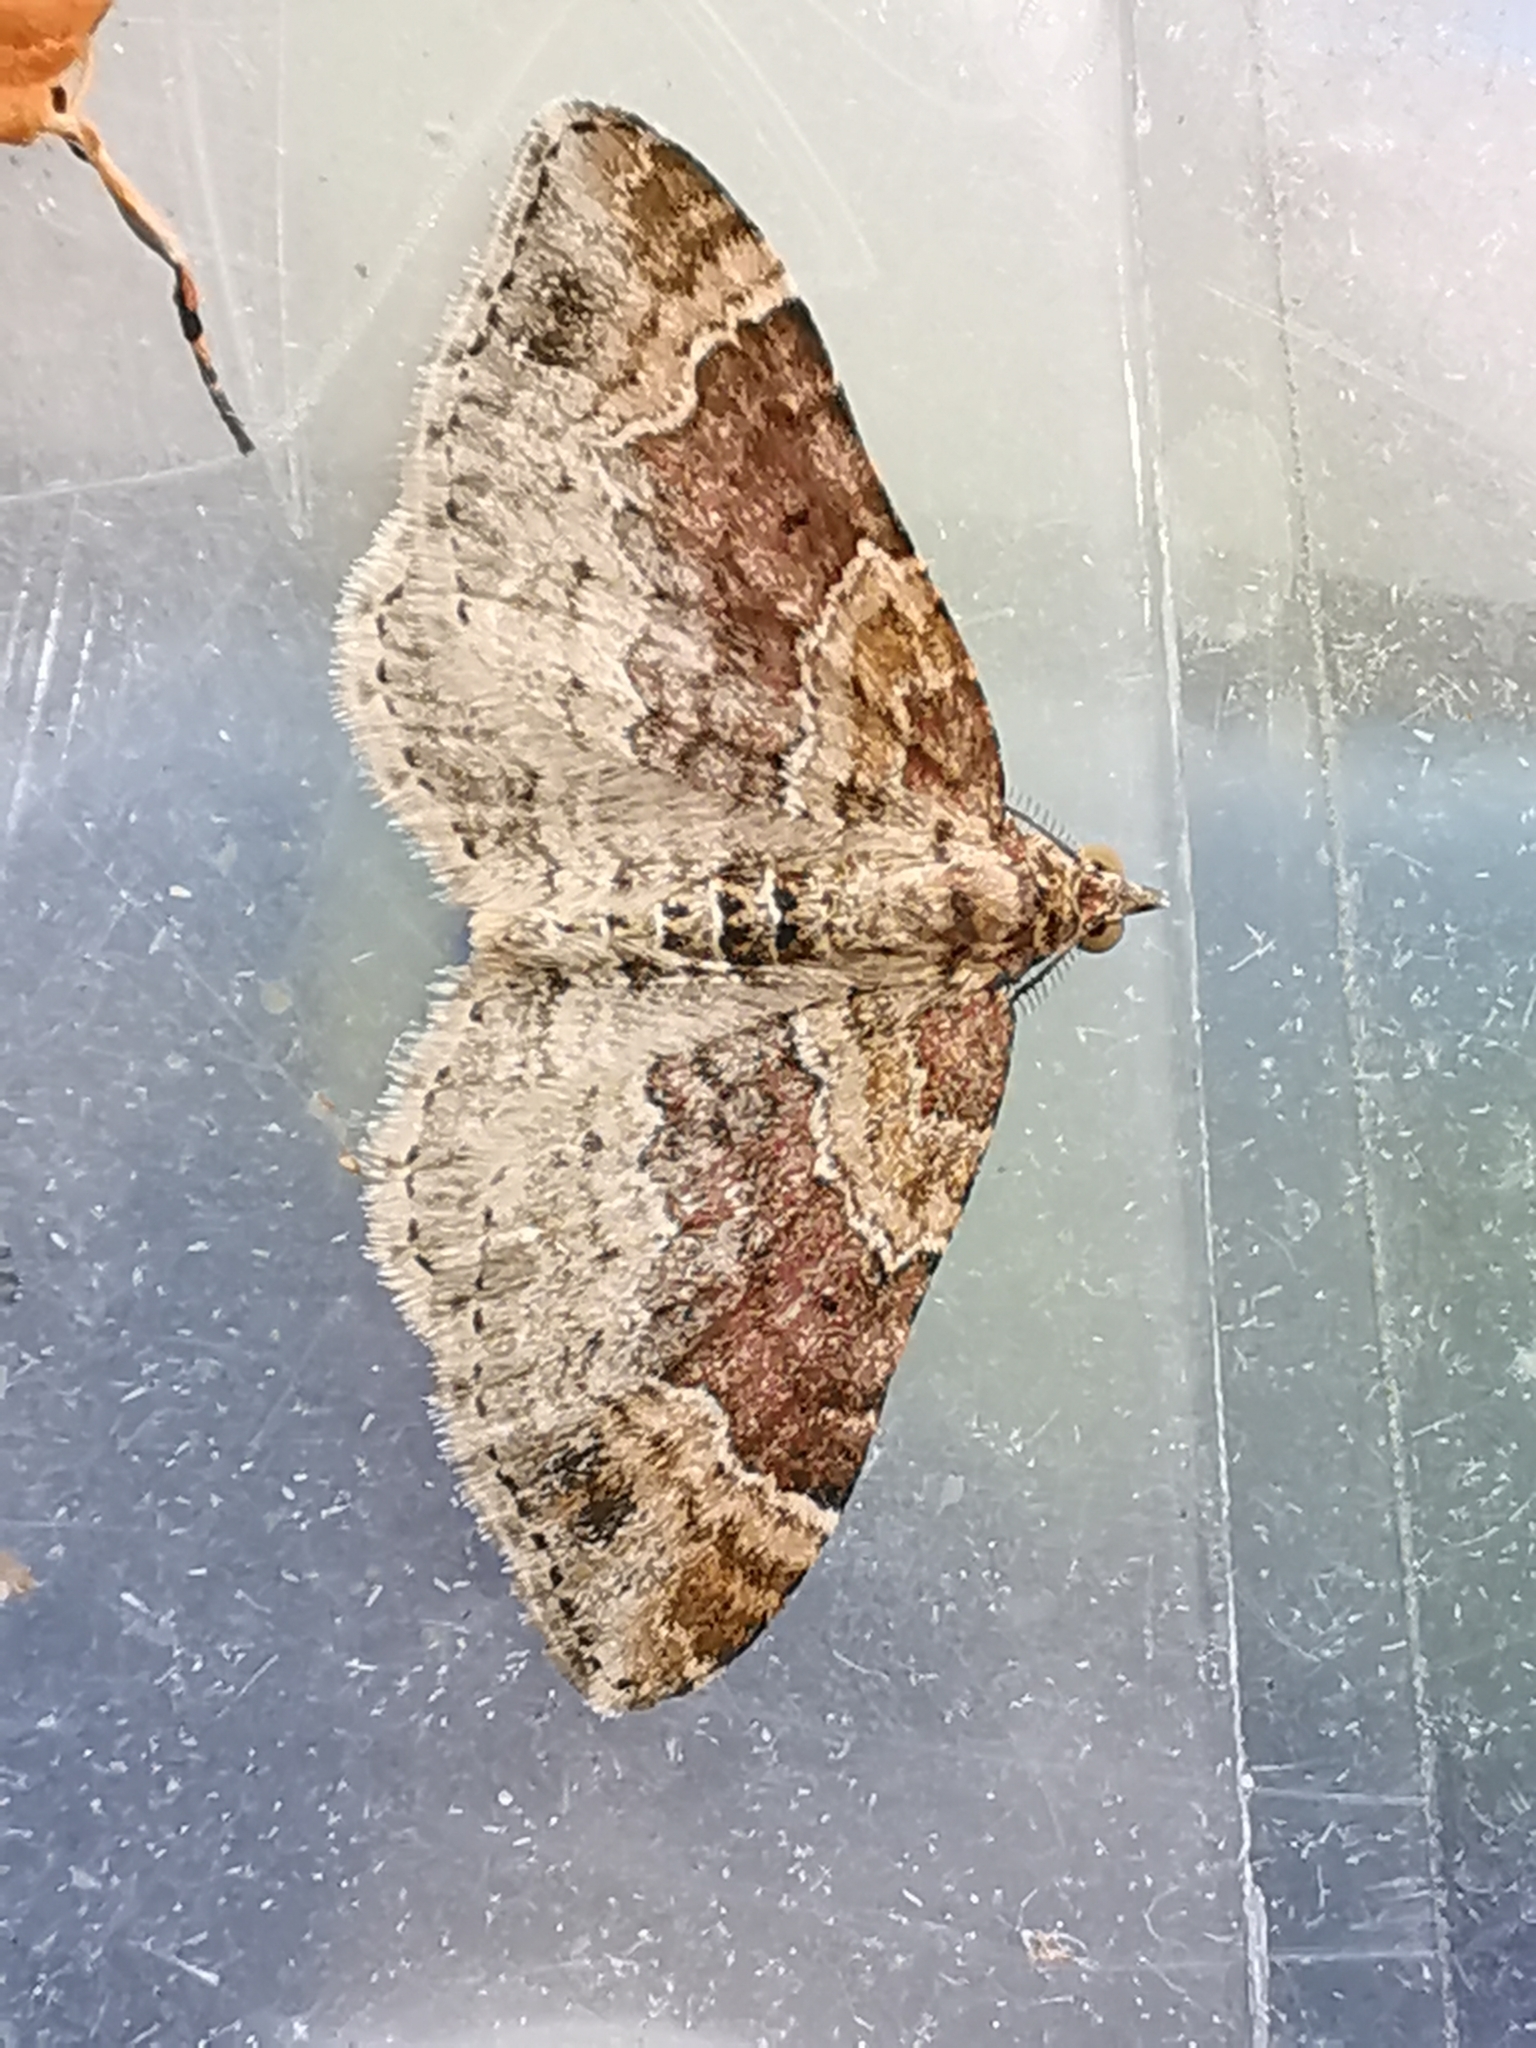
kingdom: Animalia
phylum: Arthropoda
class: Insecta
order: Lepidoptera
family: Geometridae
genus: Xanthorhoe
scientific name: Xanthorhoe spadicearia
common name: Red twin-spot carpet
